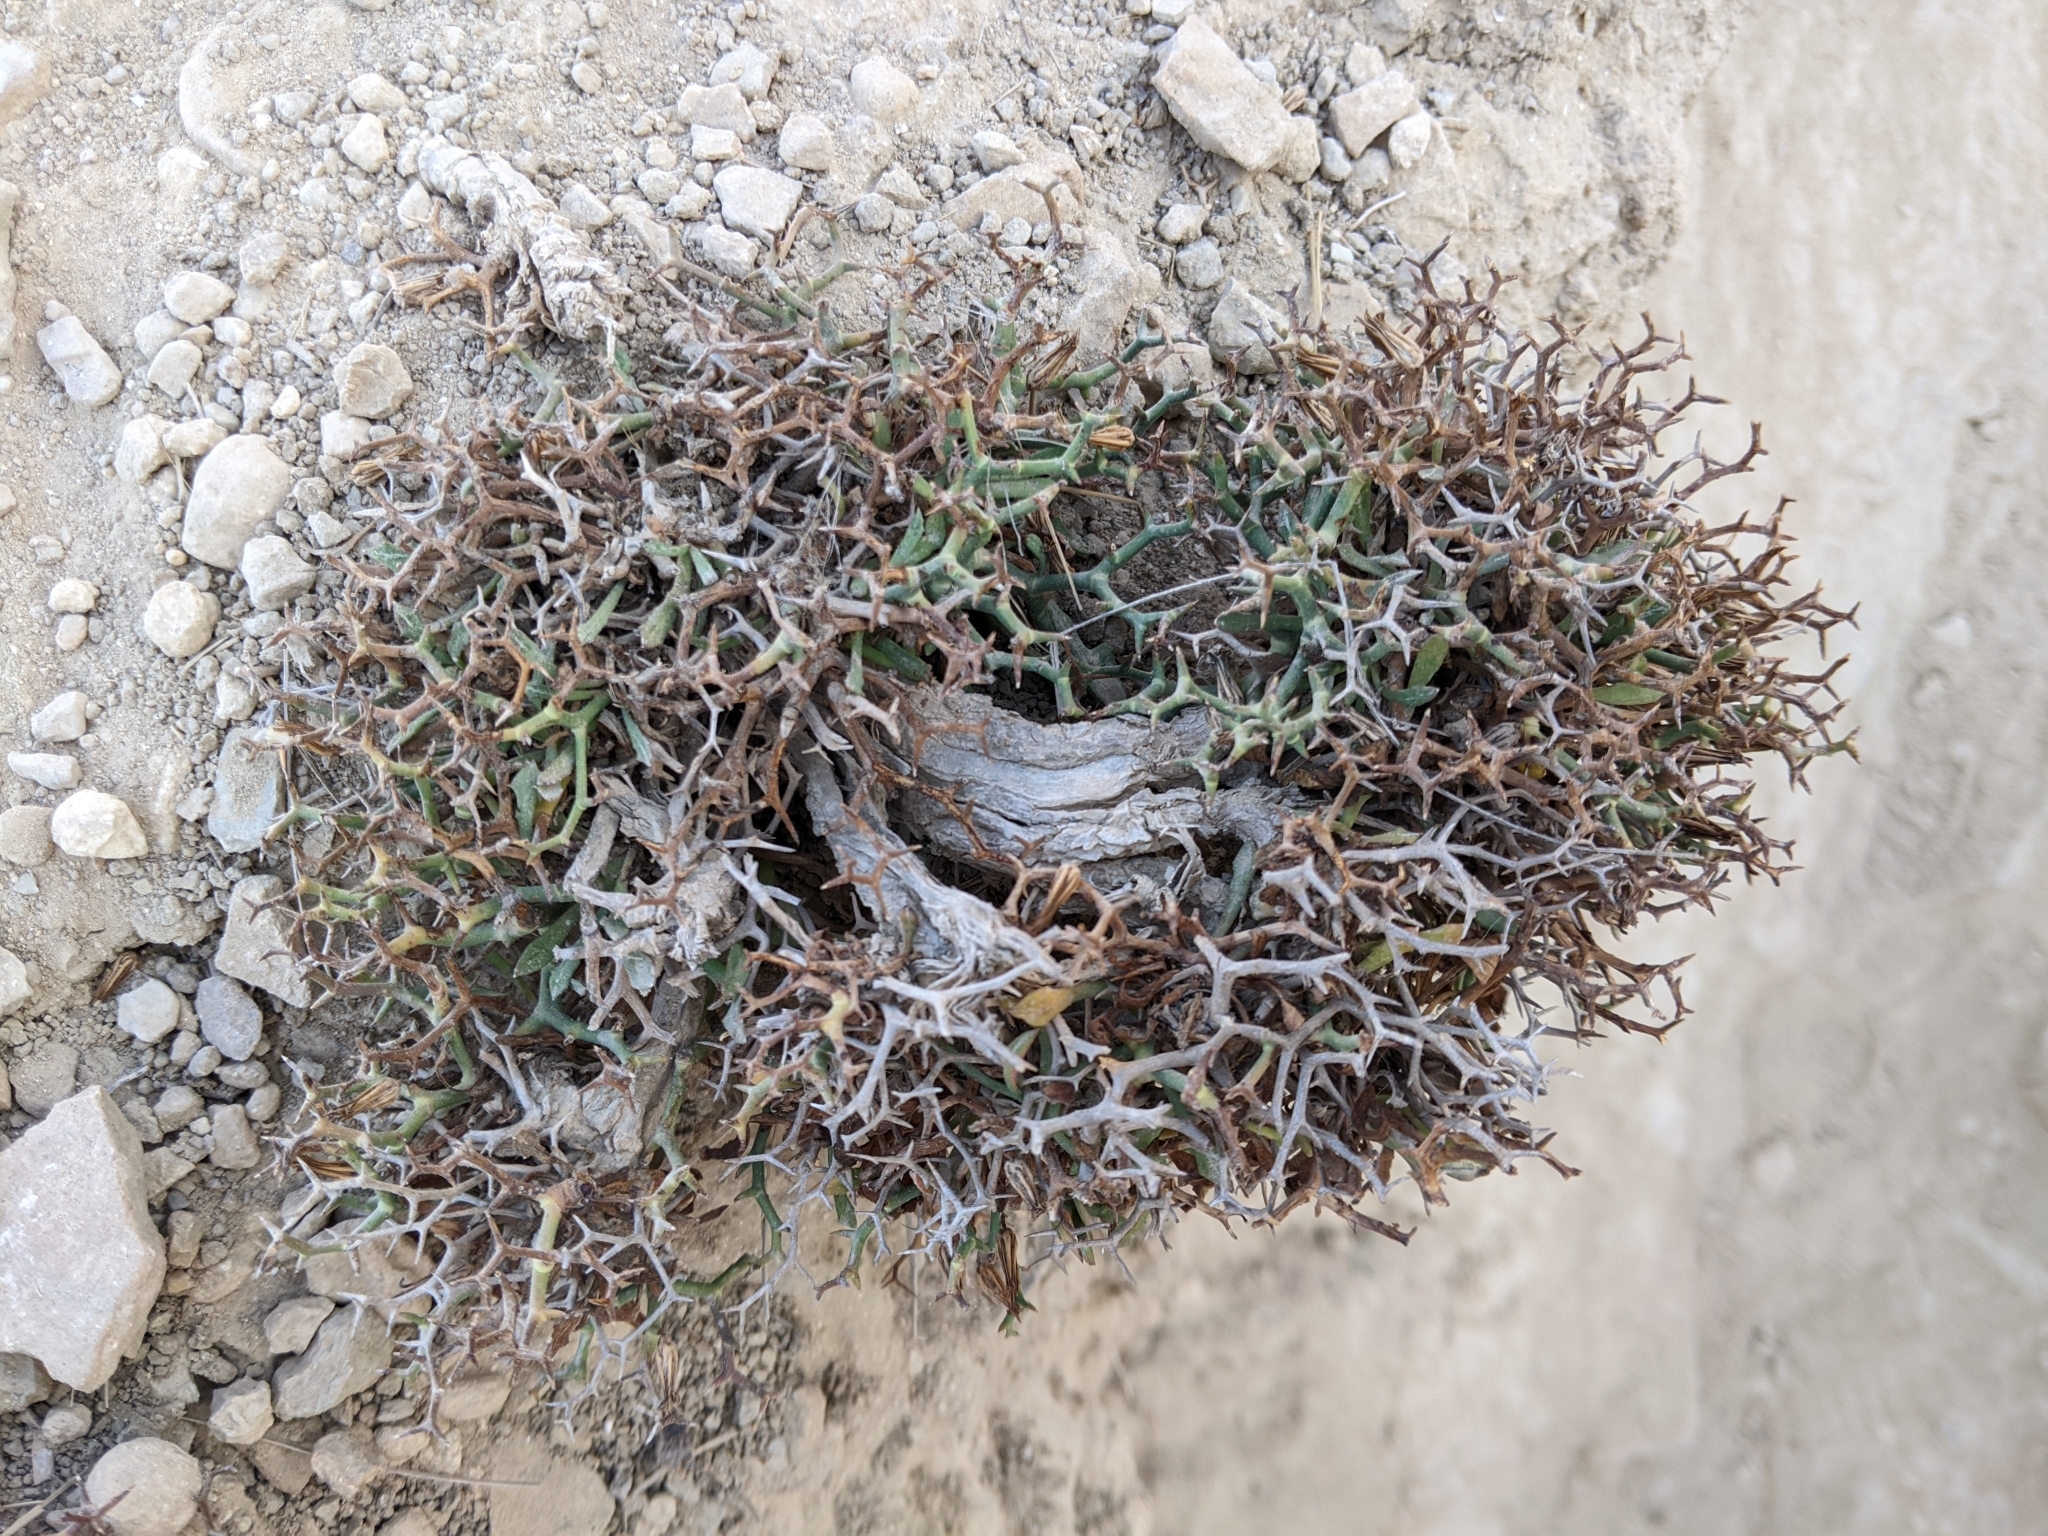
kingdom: Plantae
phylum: Tracheophyta
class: Magnoliopsida
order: Asterales
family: Asteraceae
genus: Launaea
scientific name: Launaea cervicornis
